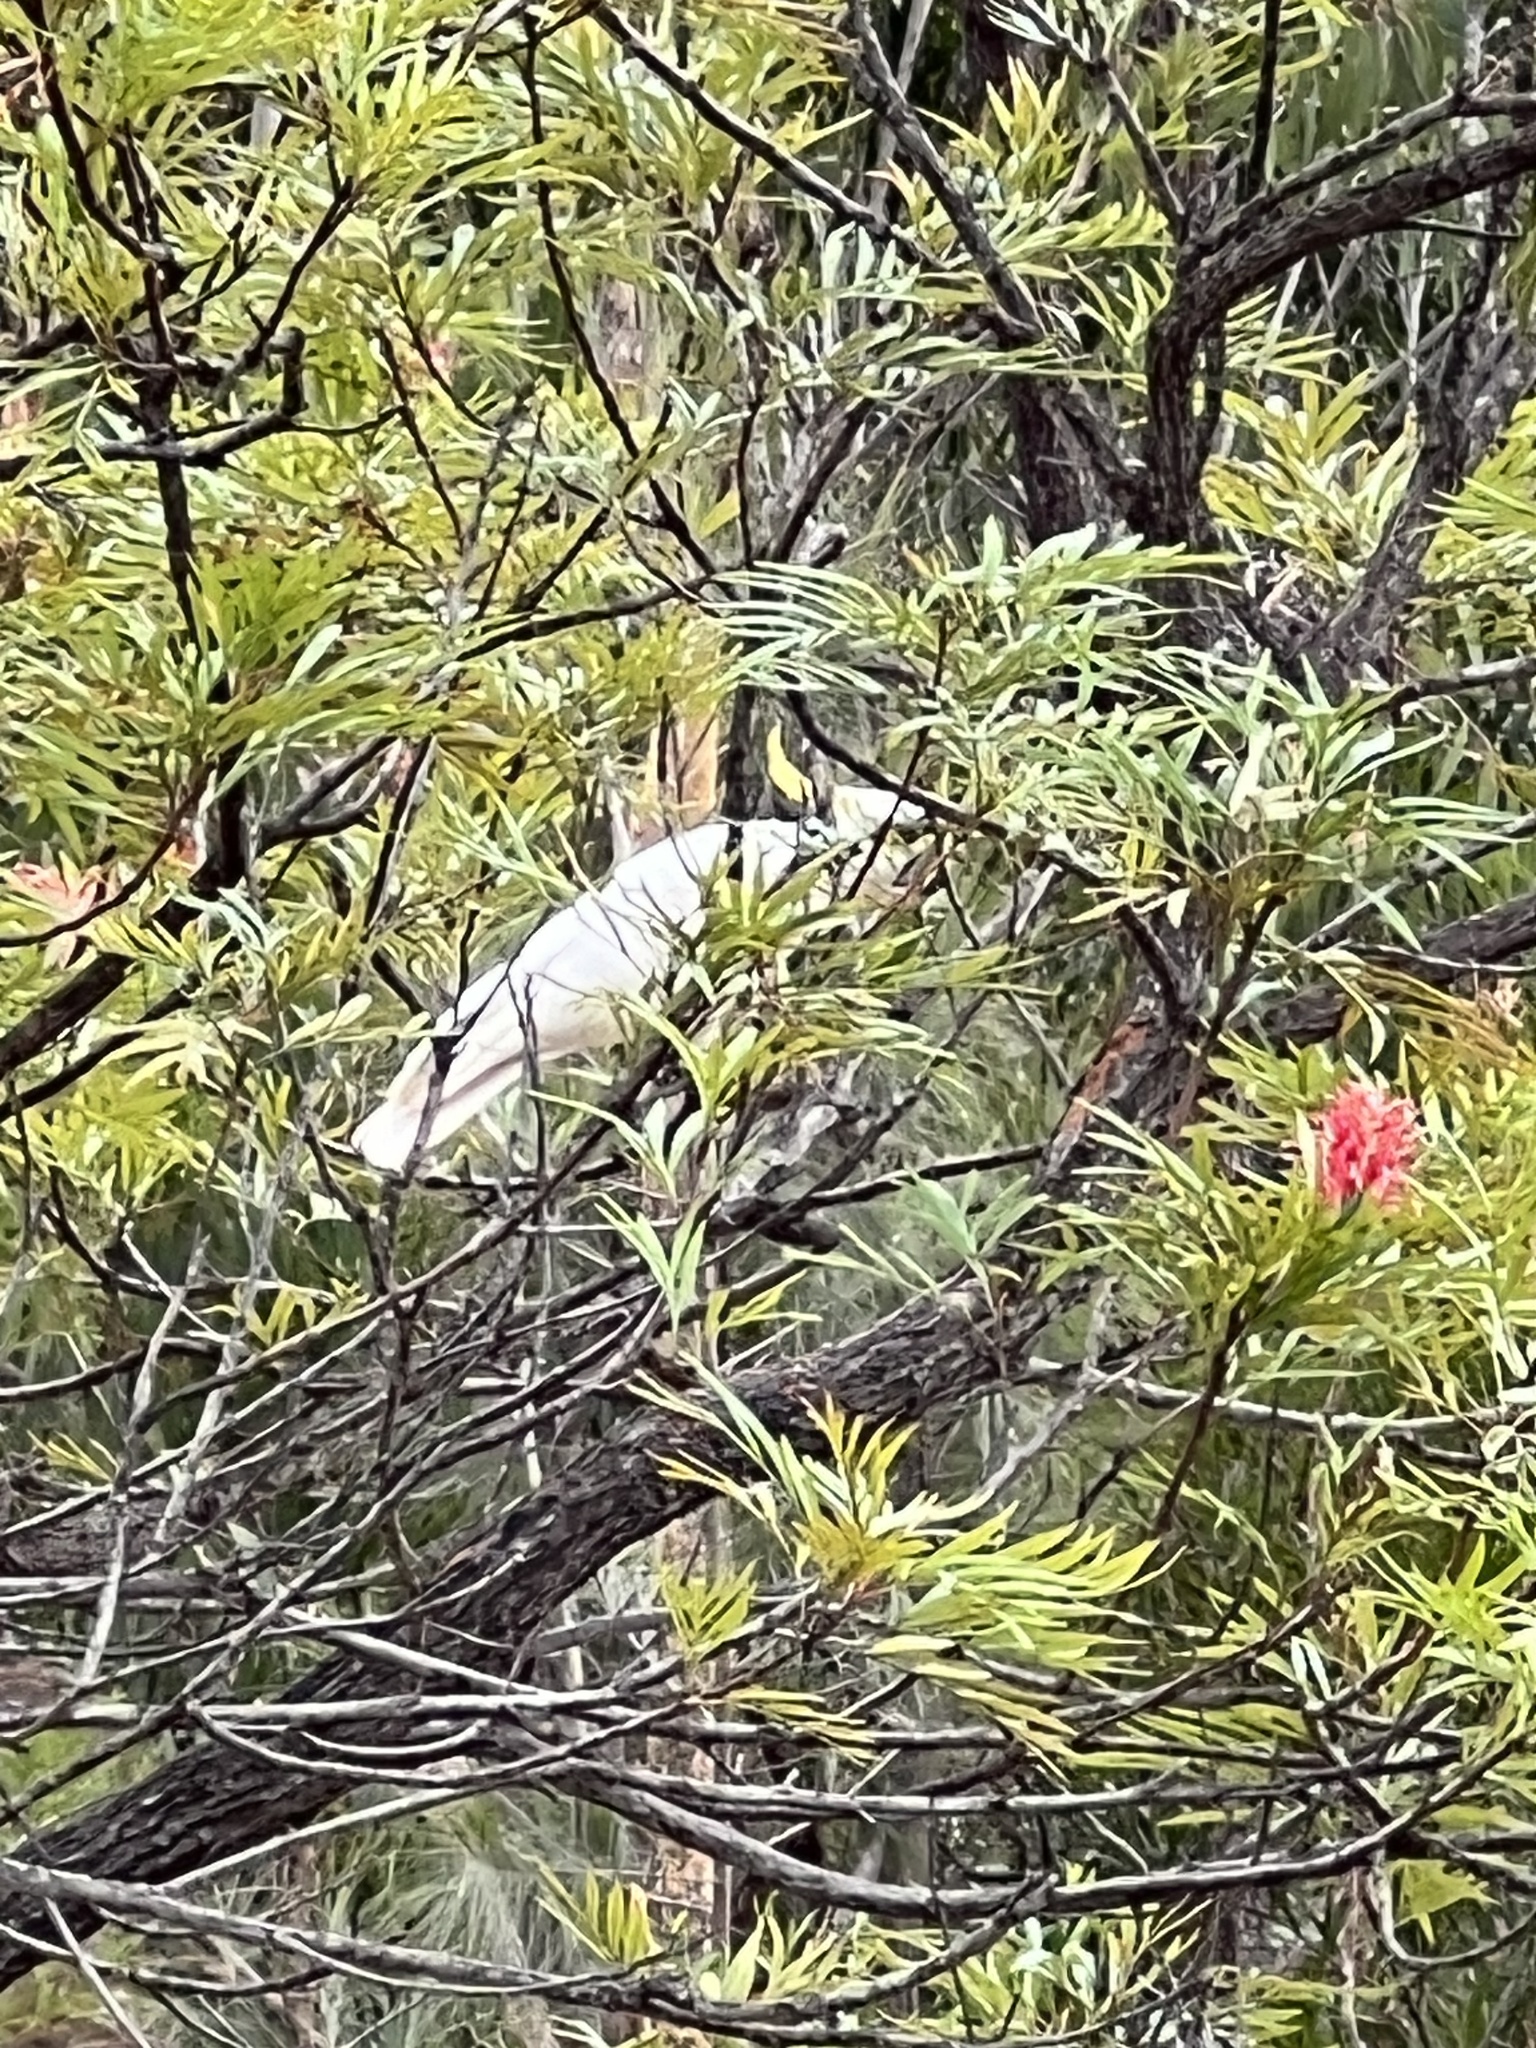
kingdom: Animalia
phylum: Chordata
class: Aves
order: Psittaciformes
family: Psittacidae
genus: Cacatua
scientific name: Cacatua galerita
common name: Sulphur-crested cockatoo
